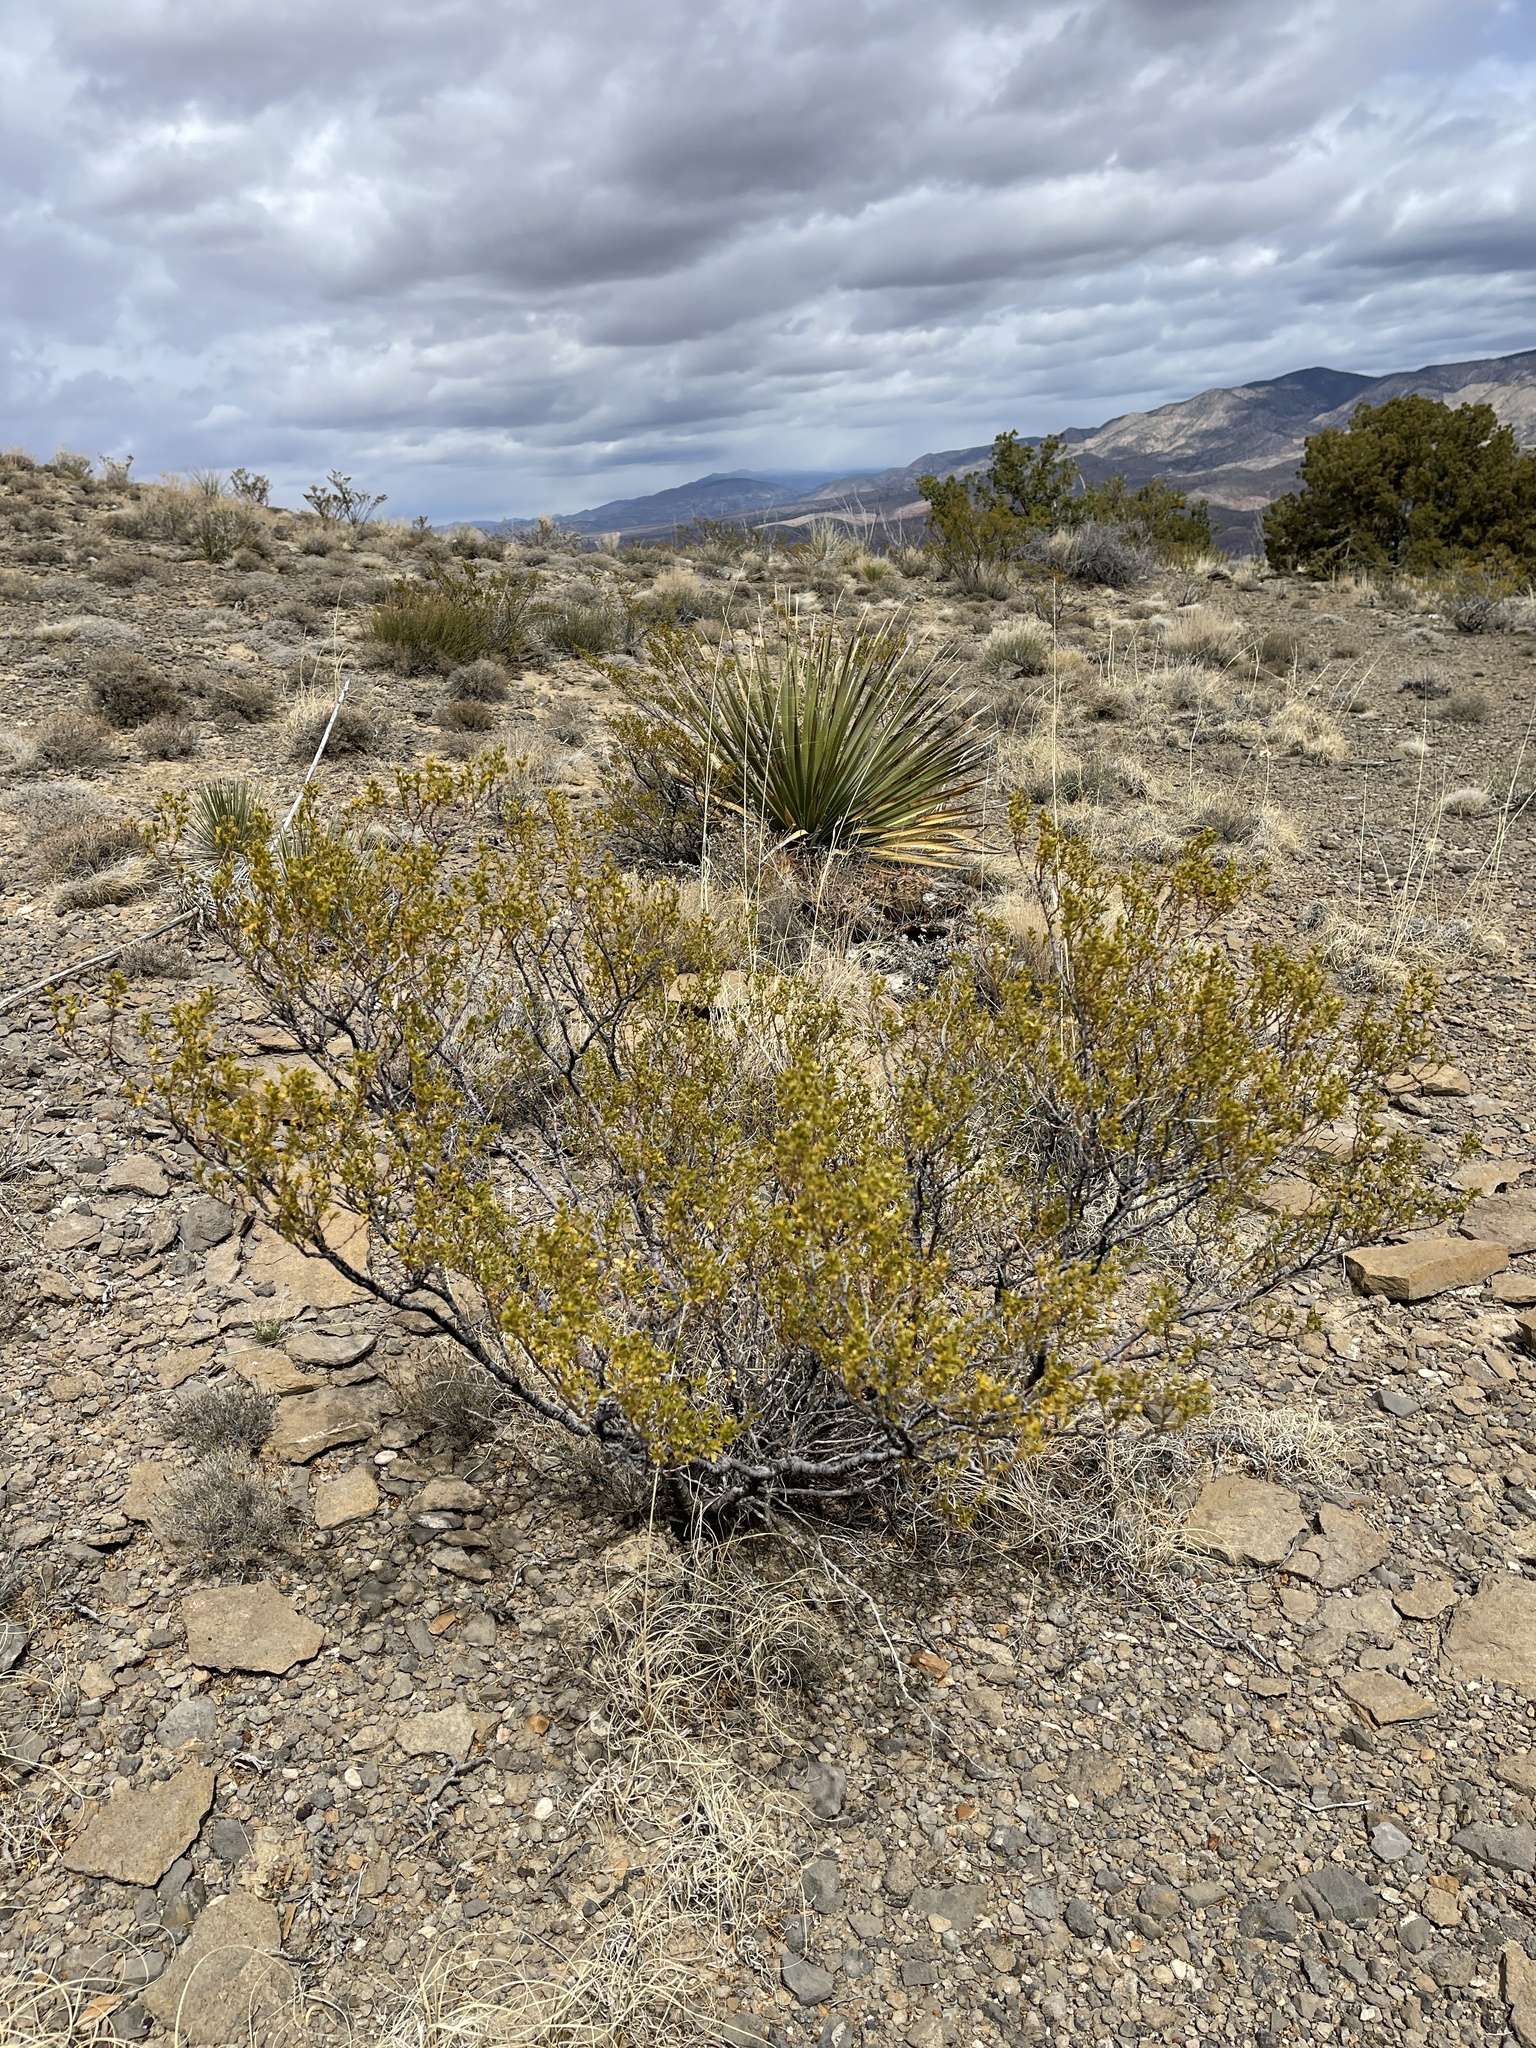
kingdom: Plantae
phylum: Tracheophyta
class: Magnoliopsida
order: Zygophyllales
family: Zygophyllaceae
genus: Larrea
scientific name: Larrea tridentata
